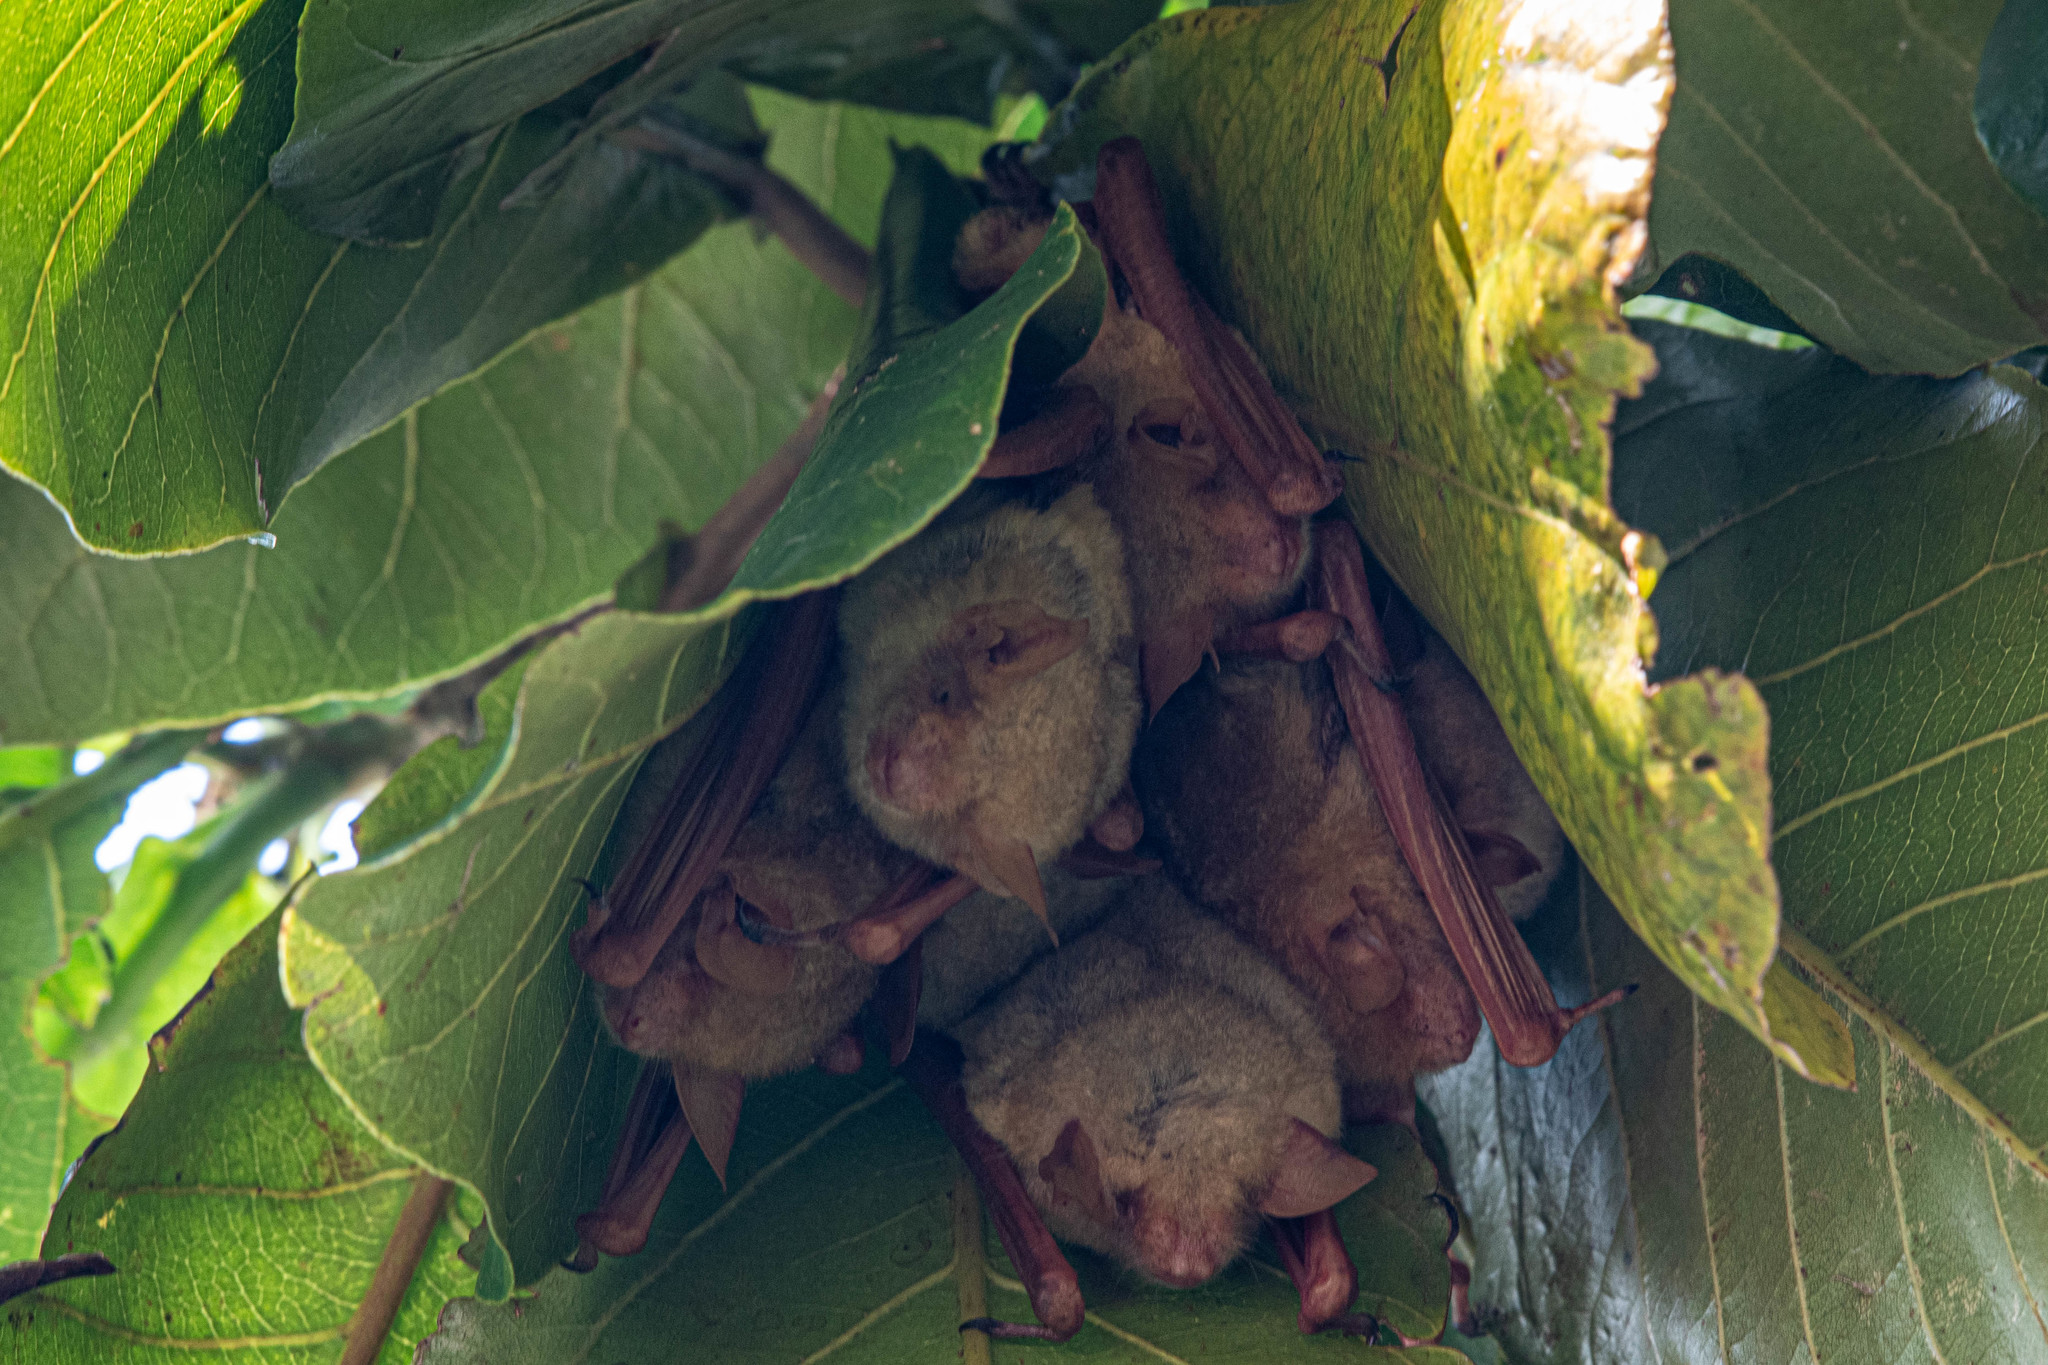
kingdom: Animalia
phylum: Chordata
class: Mammalia
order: Chiroptera
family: Vespertilionidae
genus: Myotis
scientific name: Myotis formosus
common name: Hodgson's myotis
